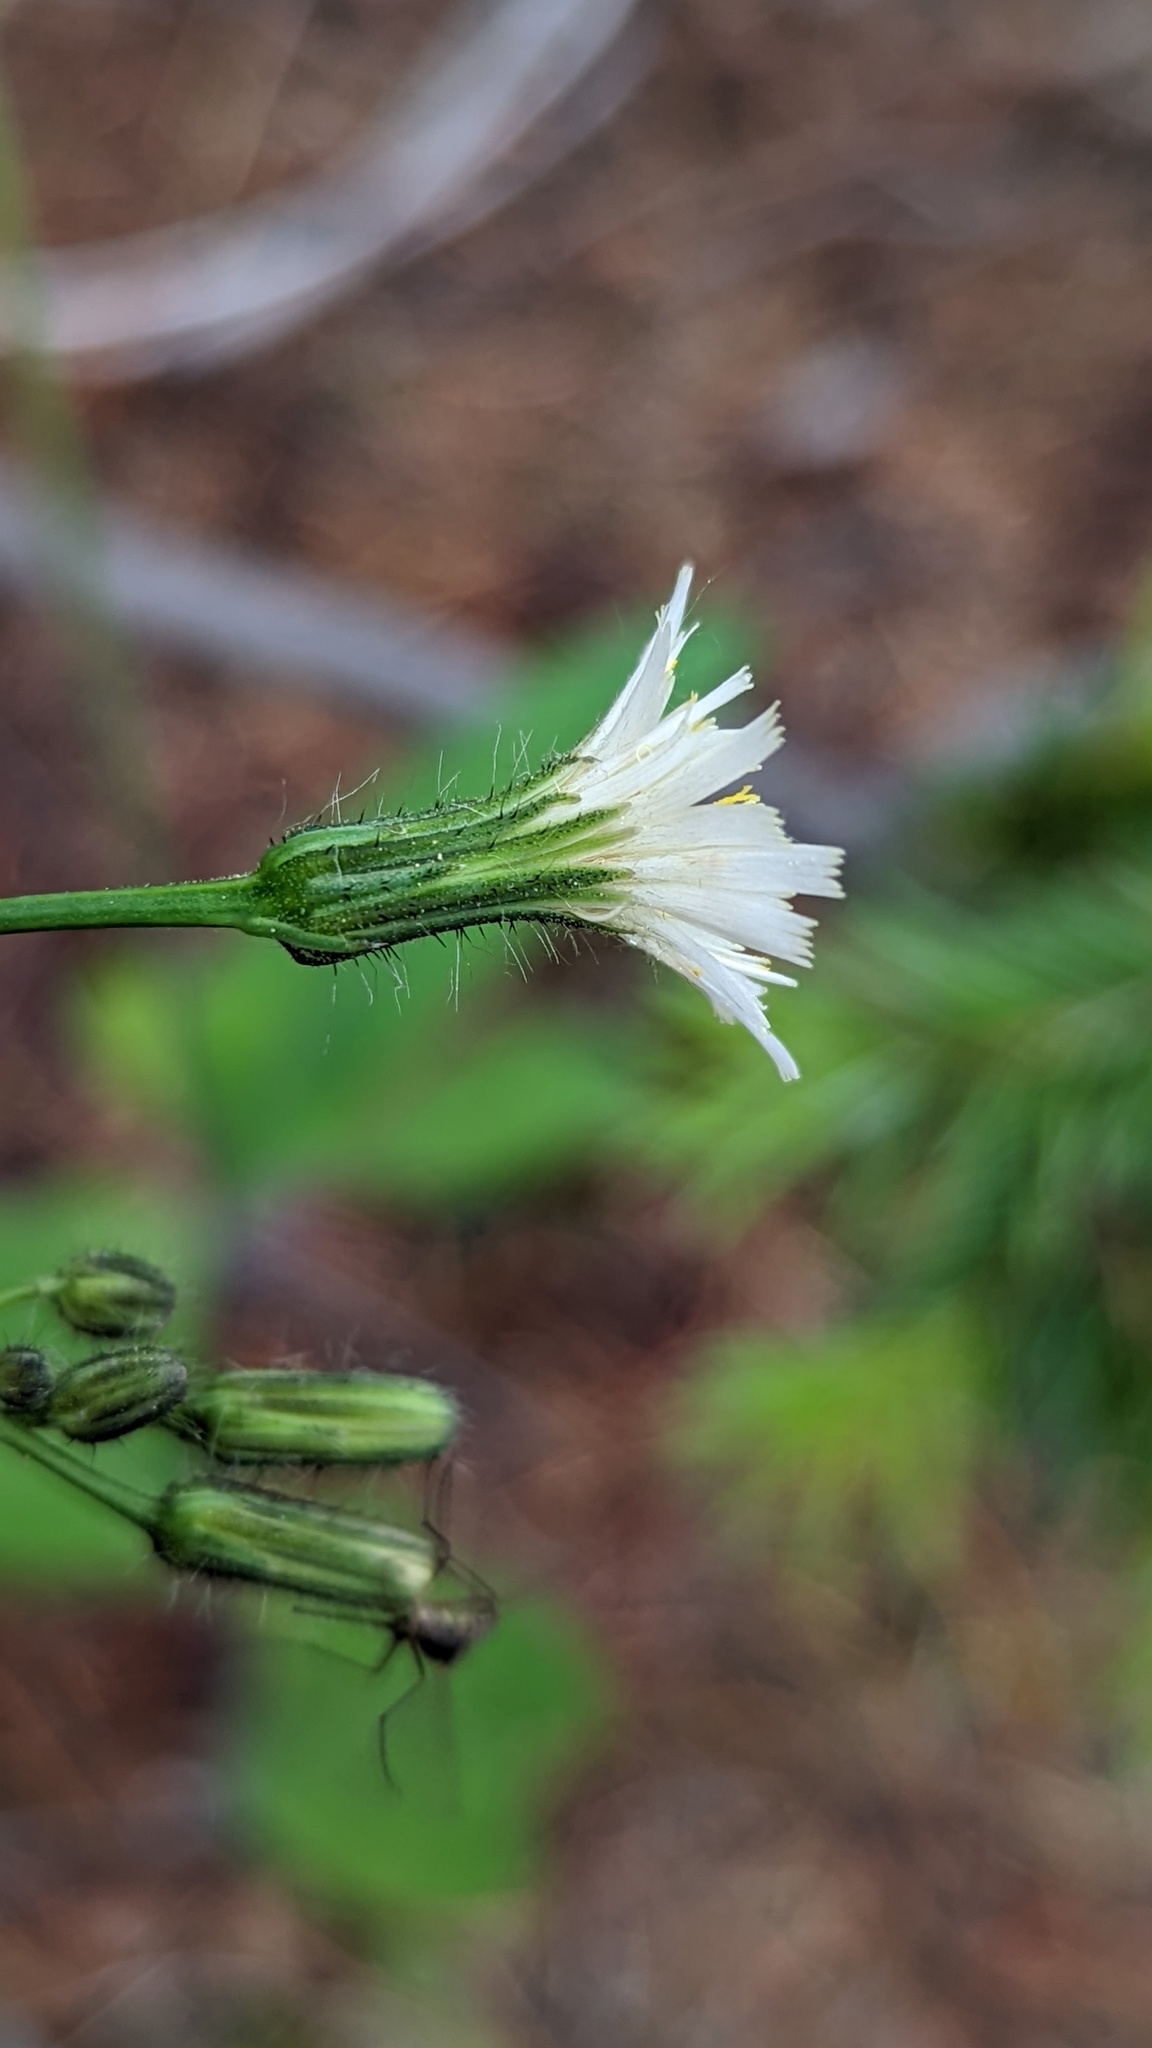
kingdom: Plantae
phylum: Tracheophyta
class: Magnoliopsida
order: Asterales
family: Asteraceae
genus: Hieracium
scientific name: Hieracium albiflorum
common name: White hawkweed
